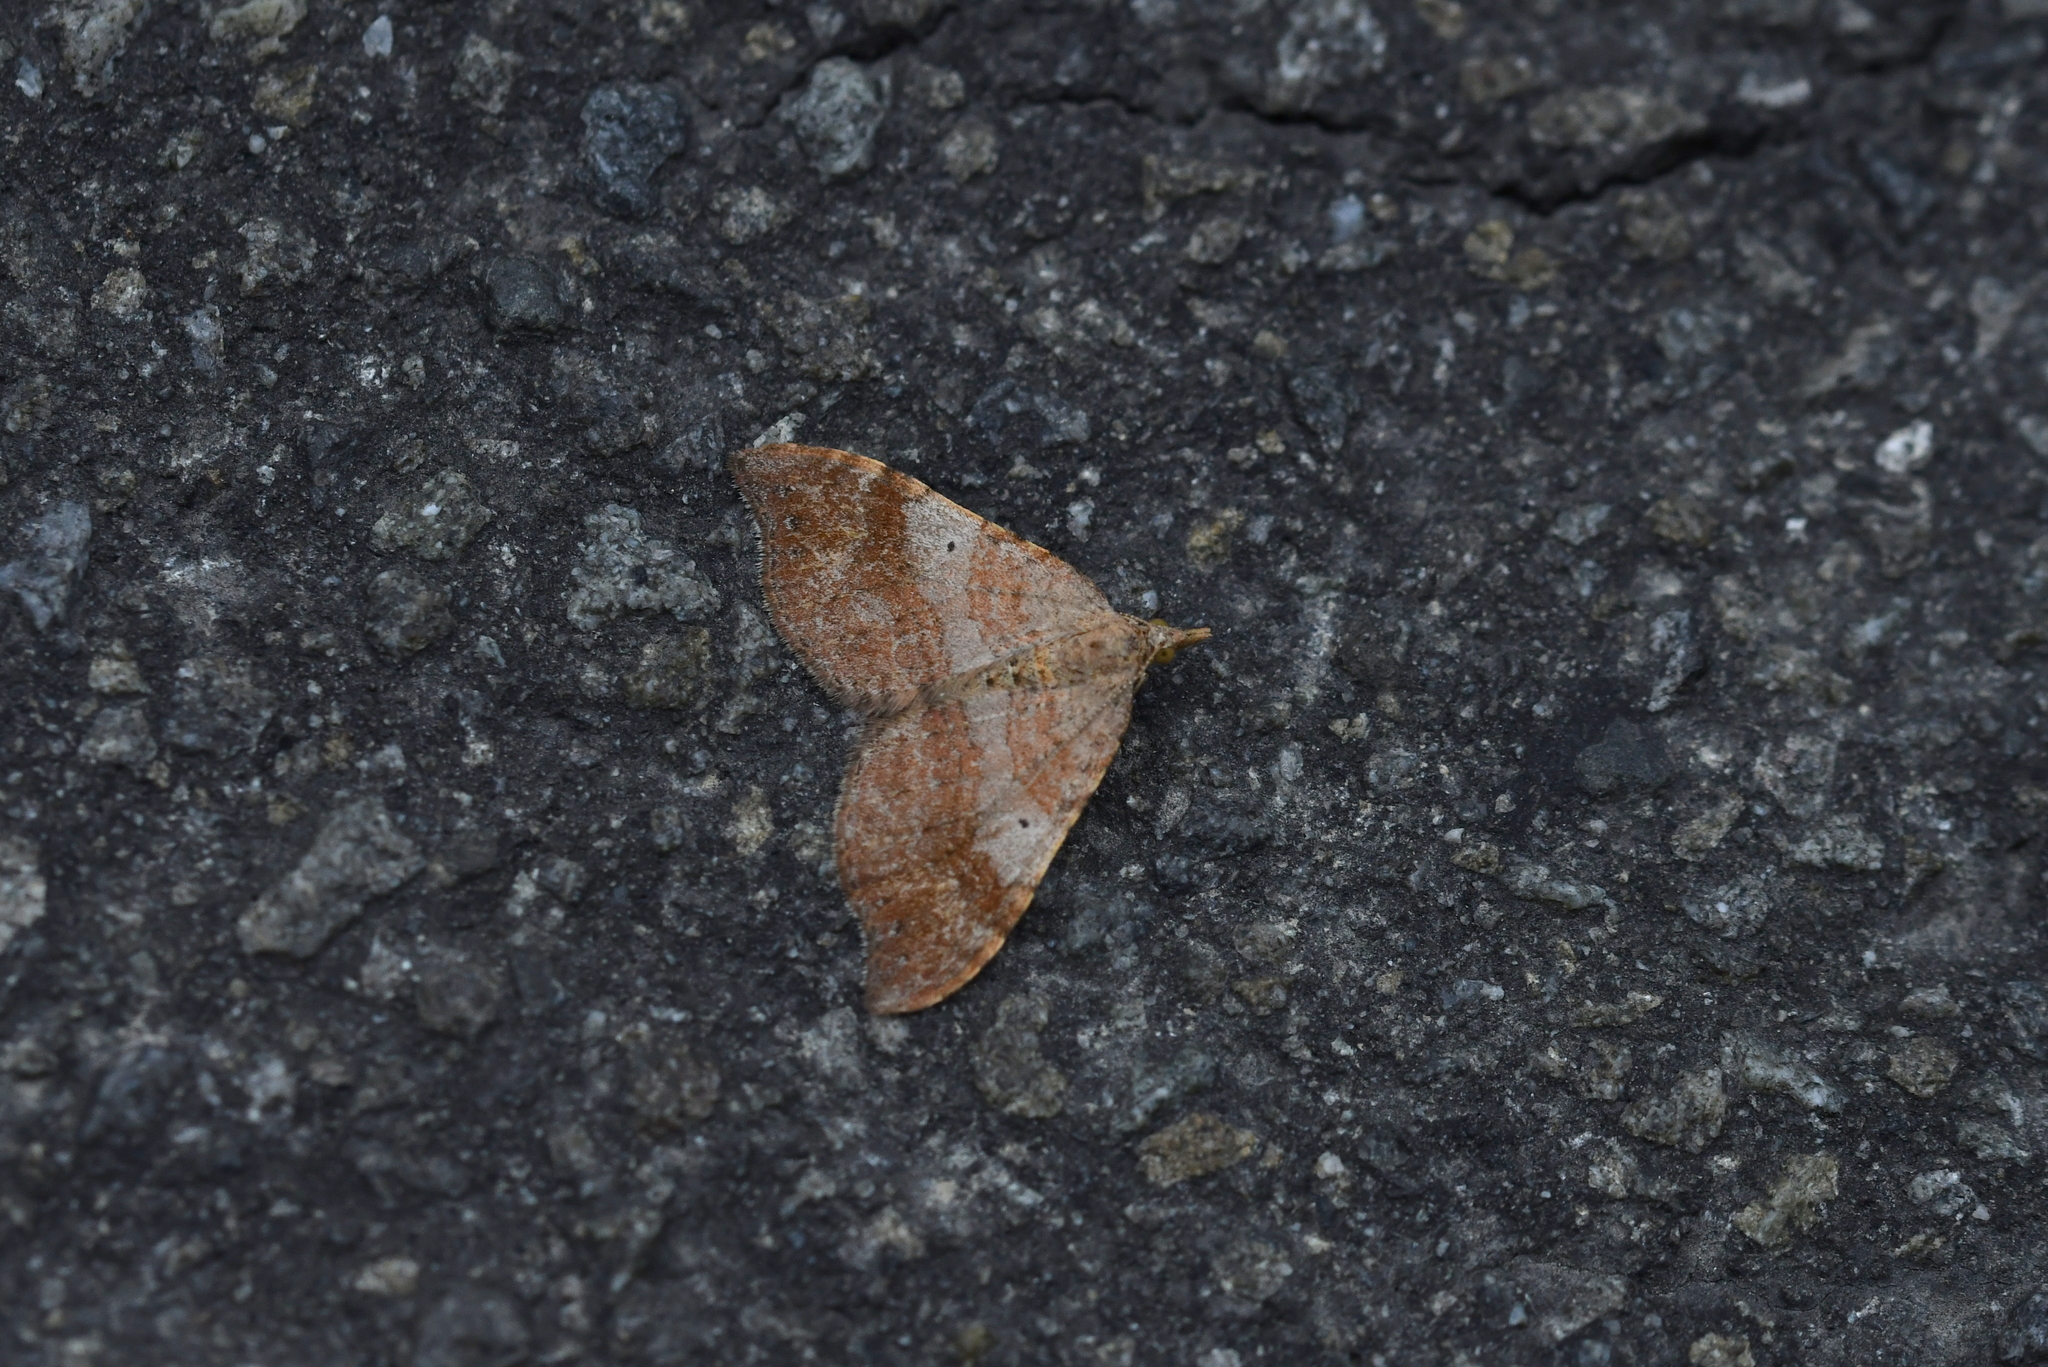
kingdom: Animalia
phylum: Arthropoda
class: Insecta
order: Lepidoptera
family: Geometridae
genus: Homodotis
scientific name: Homodotis megaspilata
